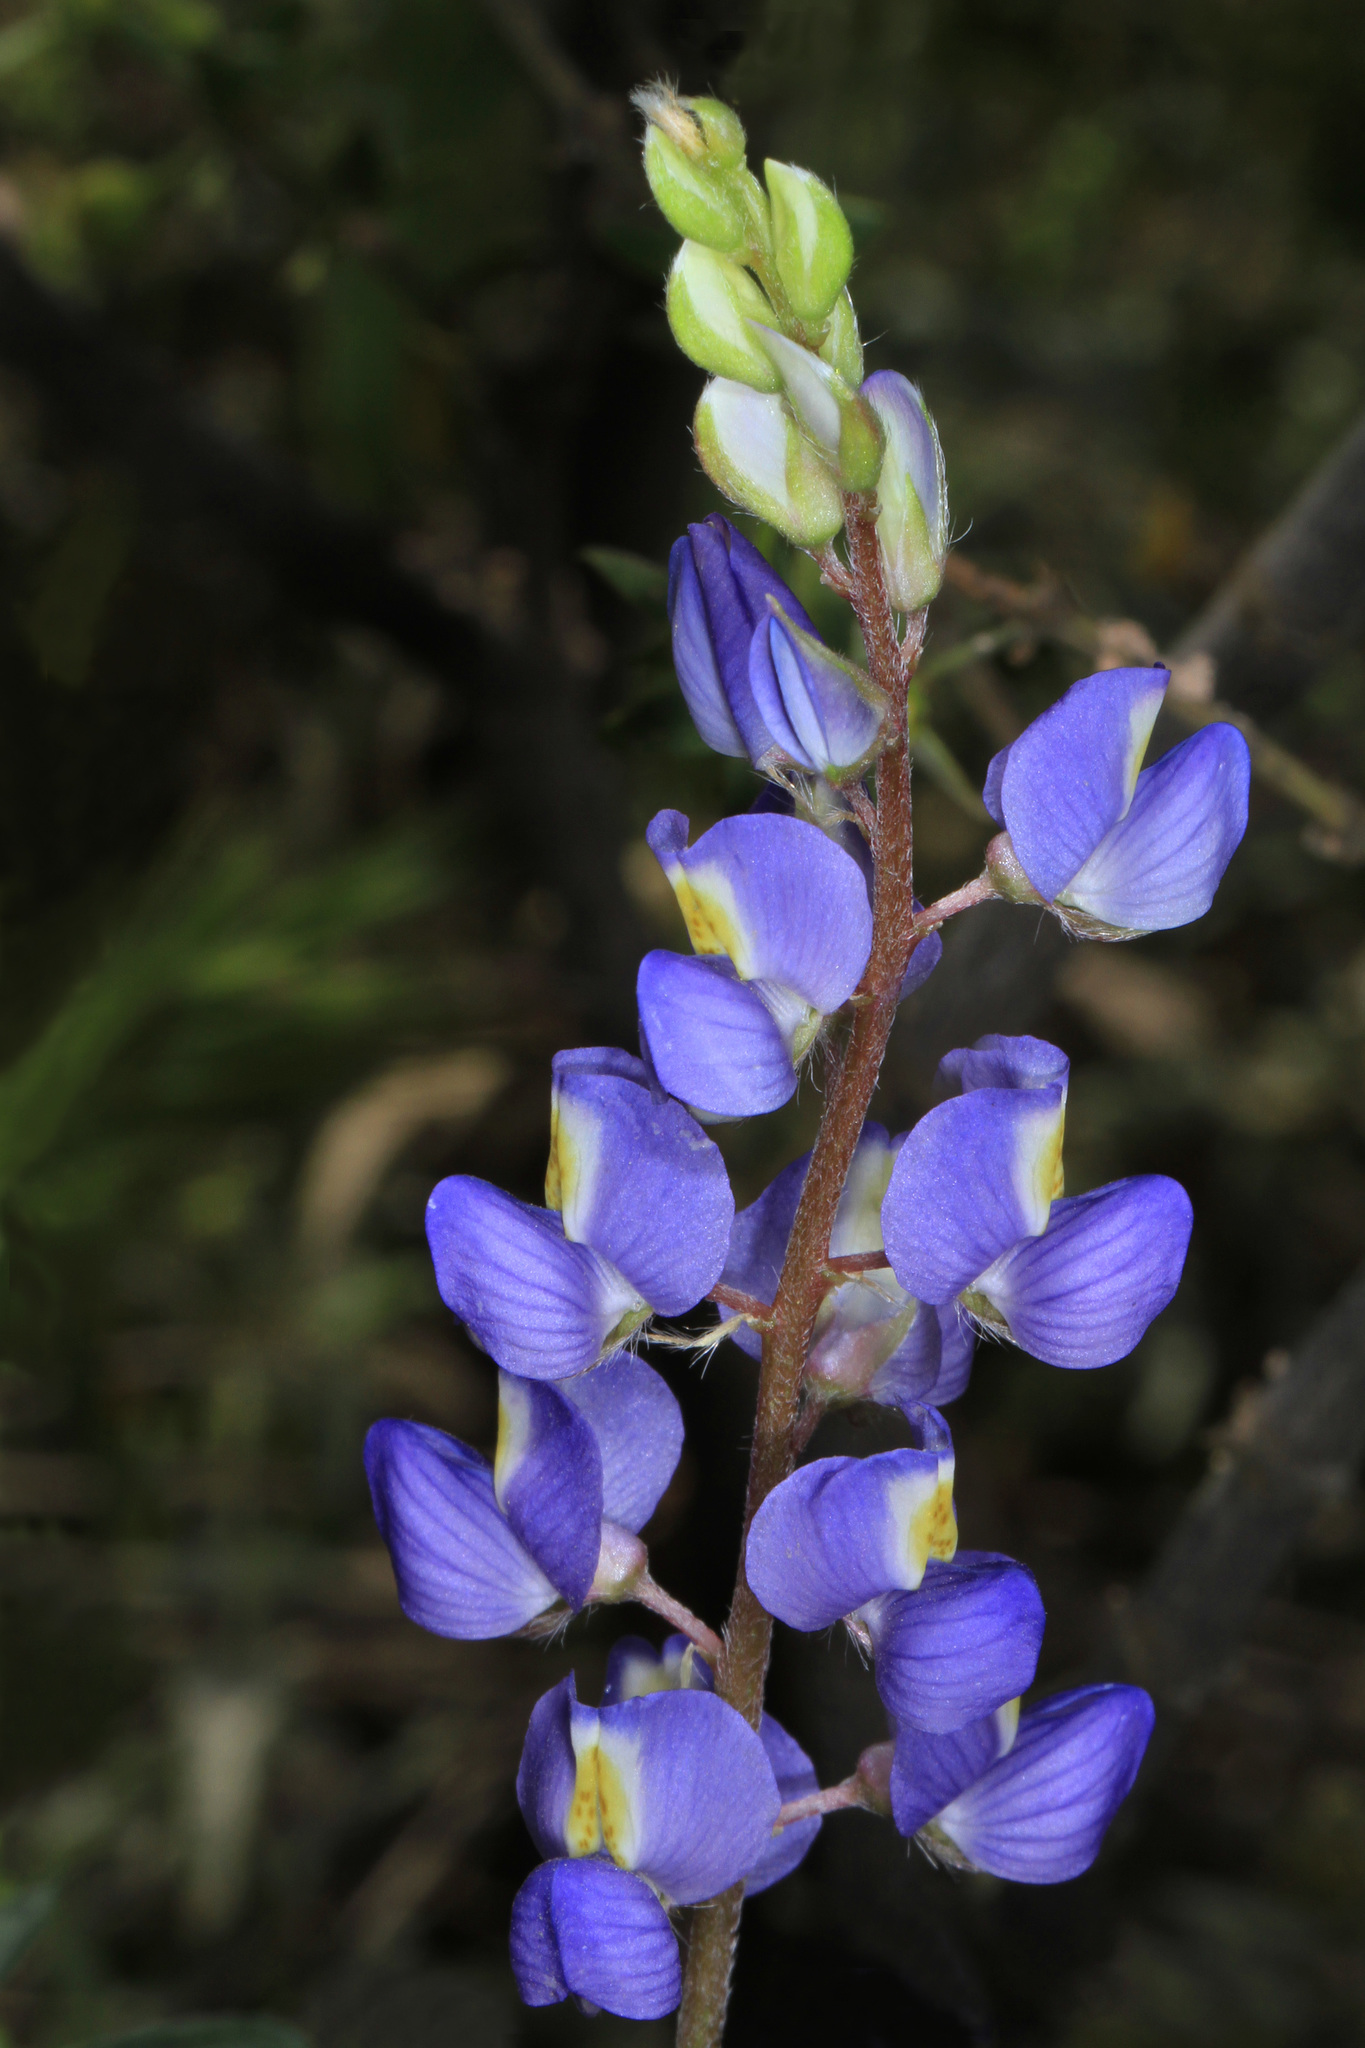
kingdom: Plantae
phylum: Tracheophyta
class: Magnoliopsida
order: Fabales
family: Fabaceae
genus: Lupinus
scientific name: Lupinus sparsiflorus
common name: Coulter's lupine
